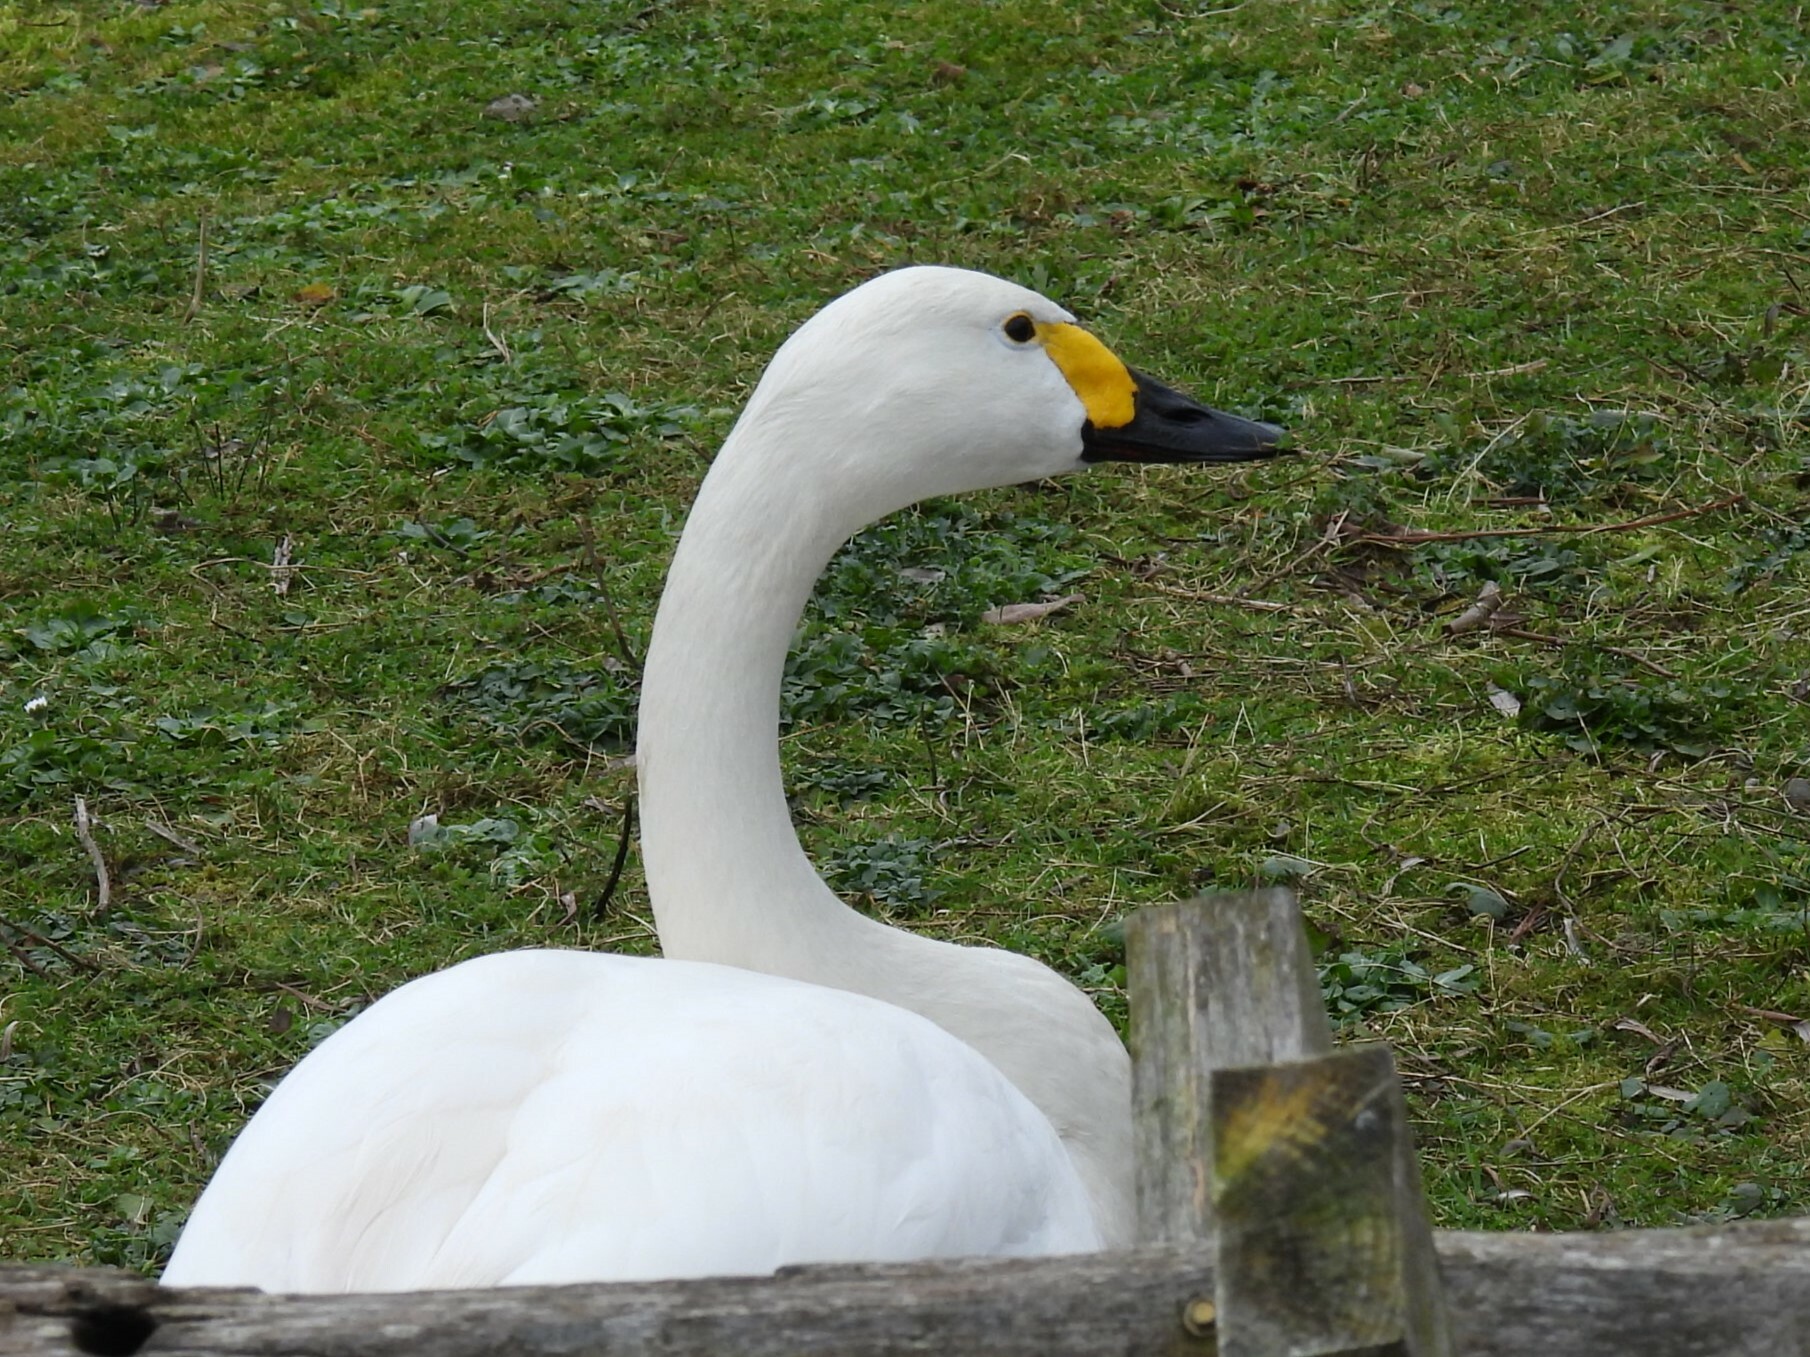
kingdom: Animalia
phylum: Chordata
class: Aves
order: Anseriformes
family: Anatidae
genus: Cygnus
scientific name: Cygnus columbianus
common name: Tundra swan
